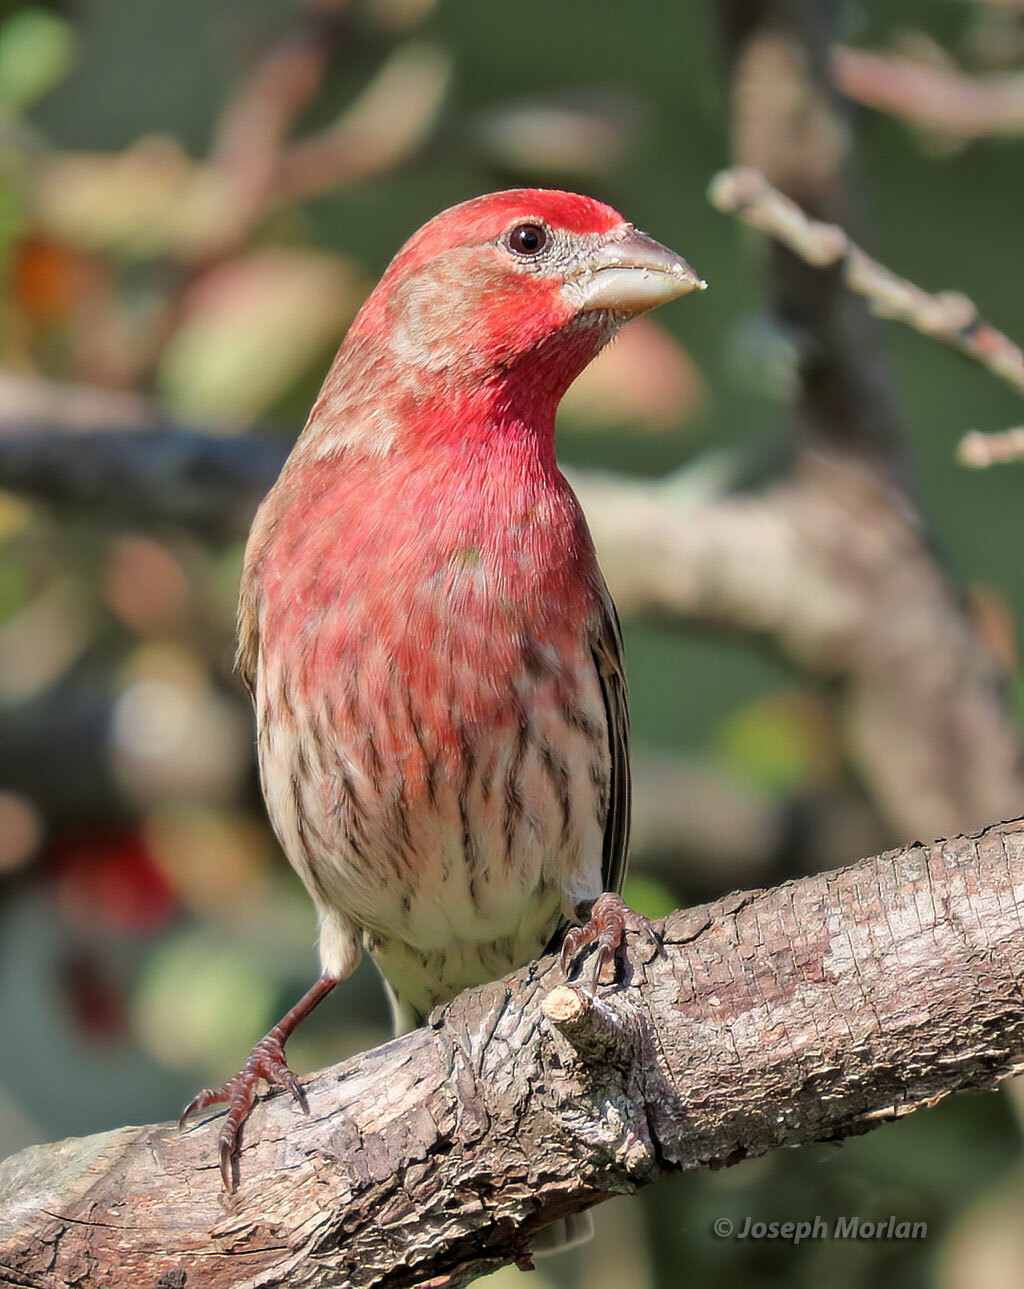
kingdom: Animalia
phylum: Chordata
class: Aves
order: Passeriformes
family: Fringillidae
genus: Haemorhous
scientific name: Haemorhous mexicanus
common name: House finch
